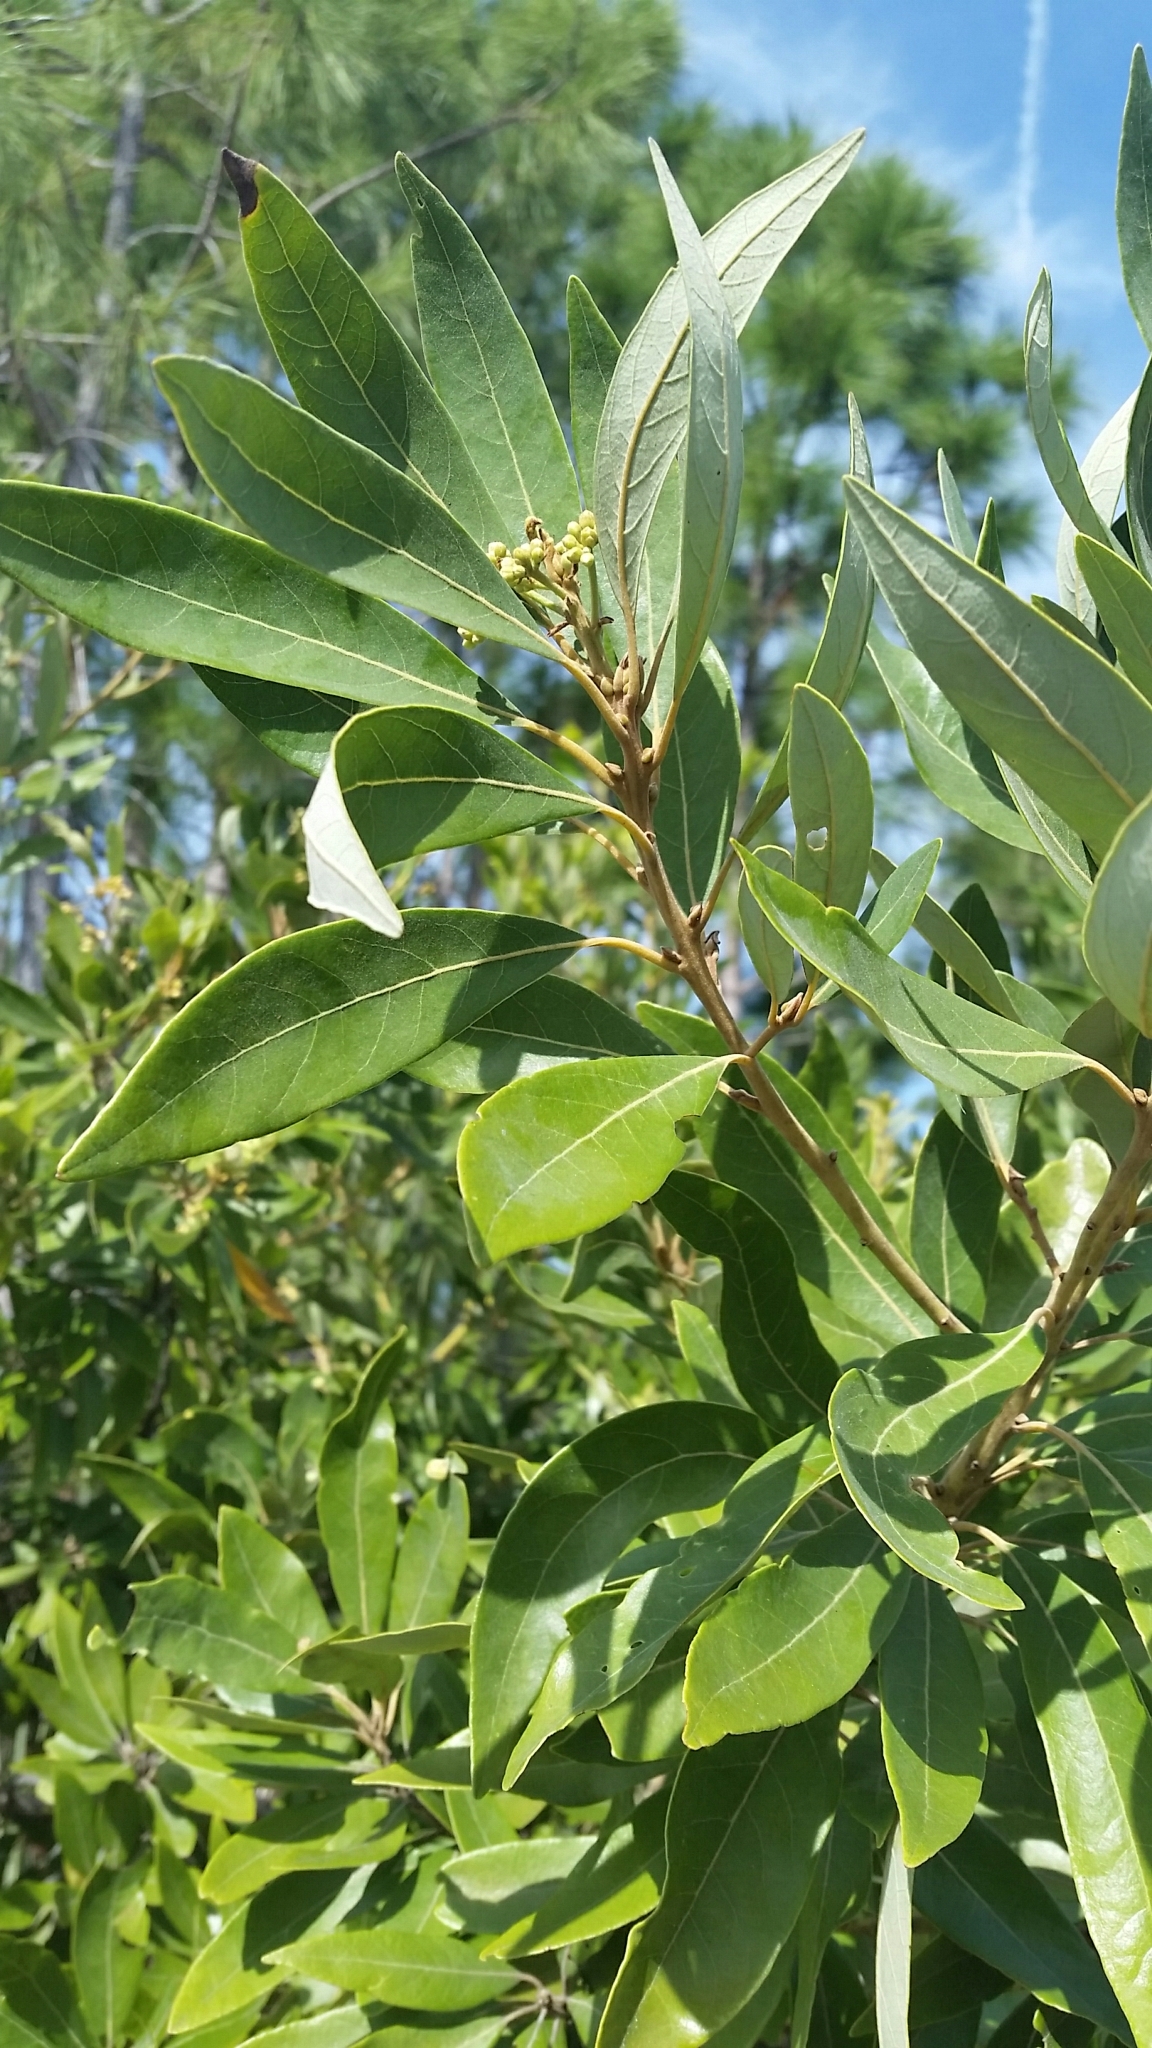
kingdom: Plantae
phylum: Tracheophyta
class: Magnoliopsida
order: Laurales
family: Lauraceae
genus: Persea
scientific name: Persea palustris
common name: Swampbay
